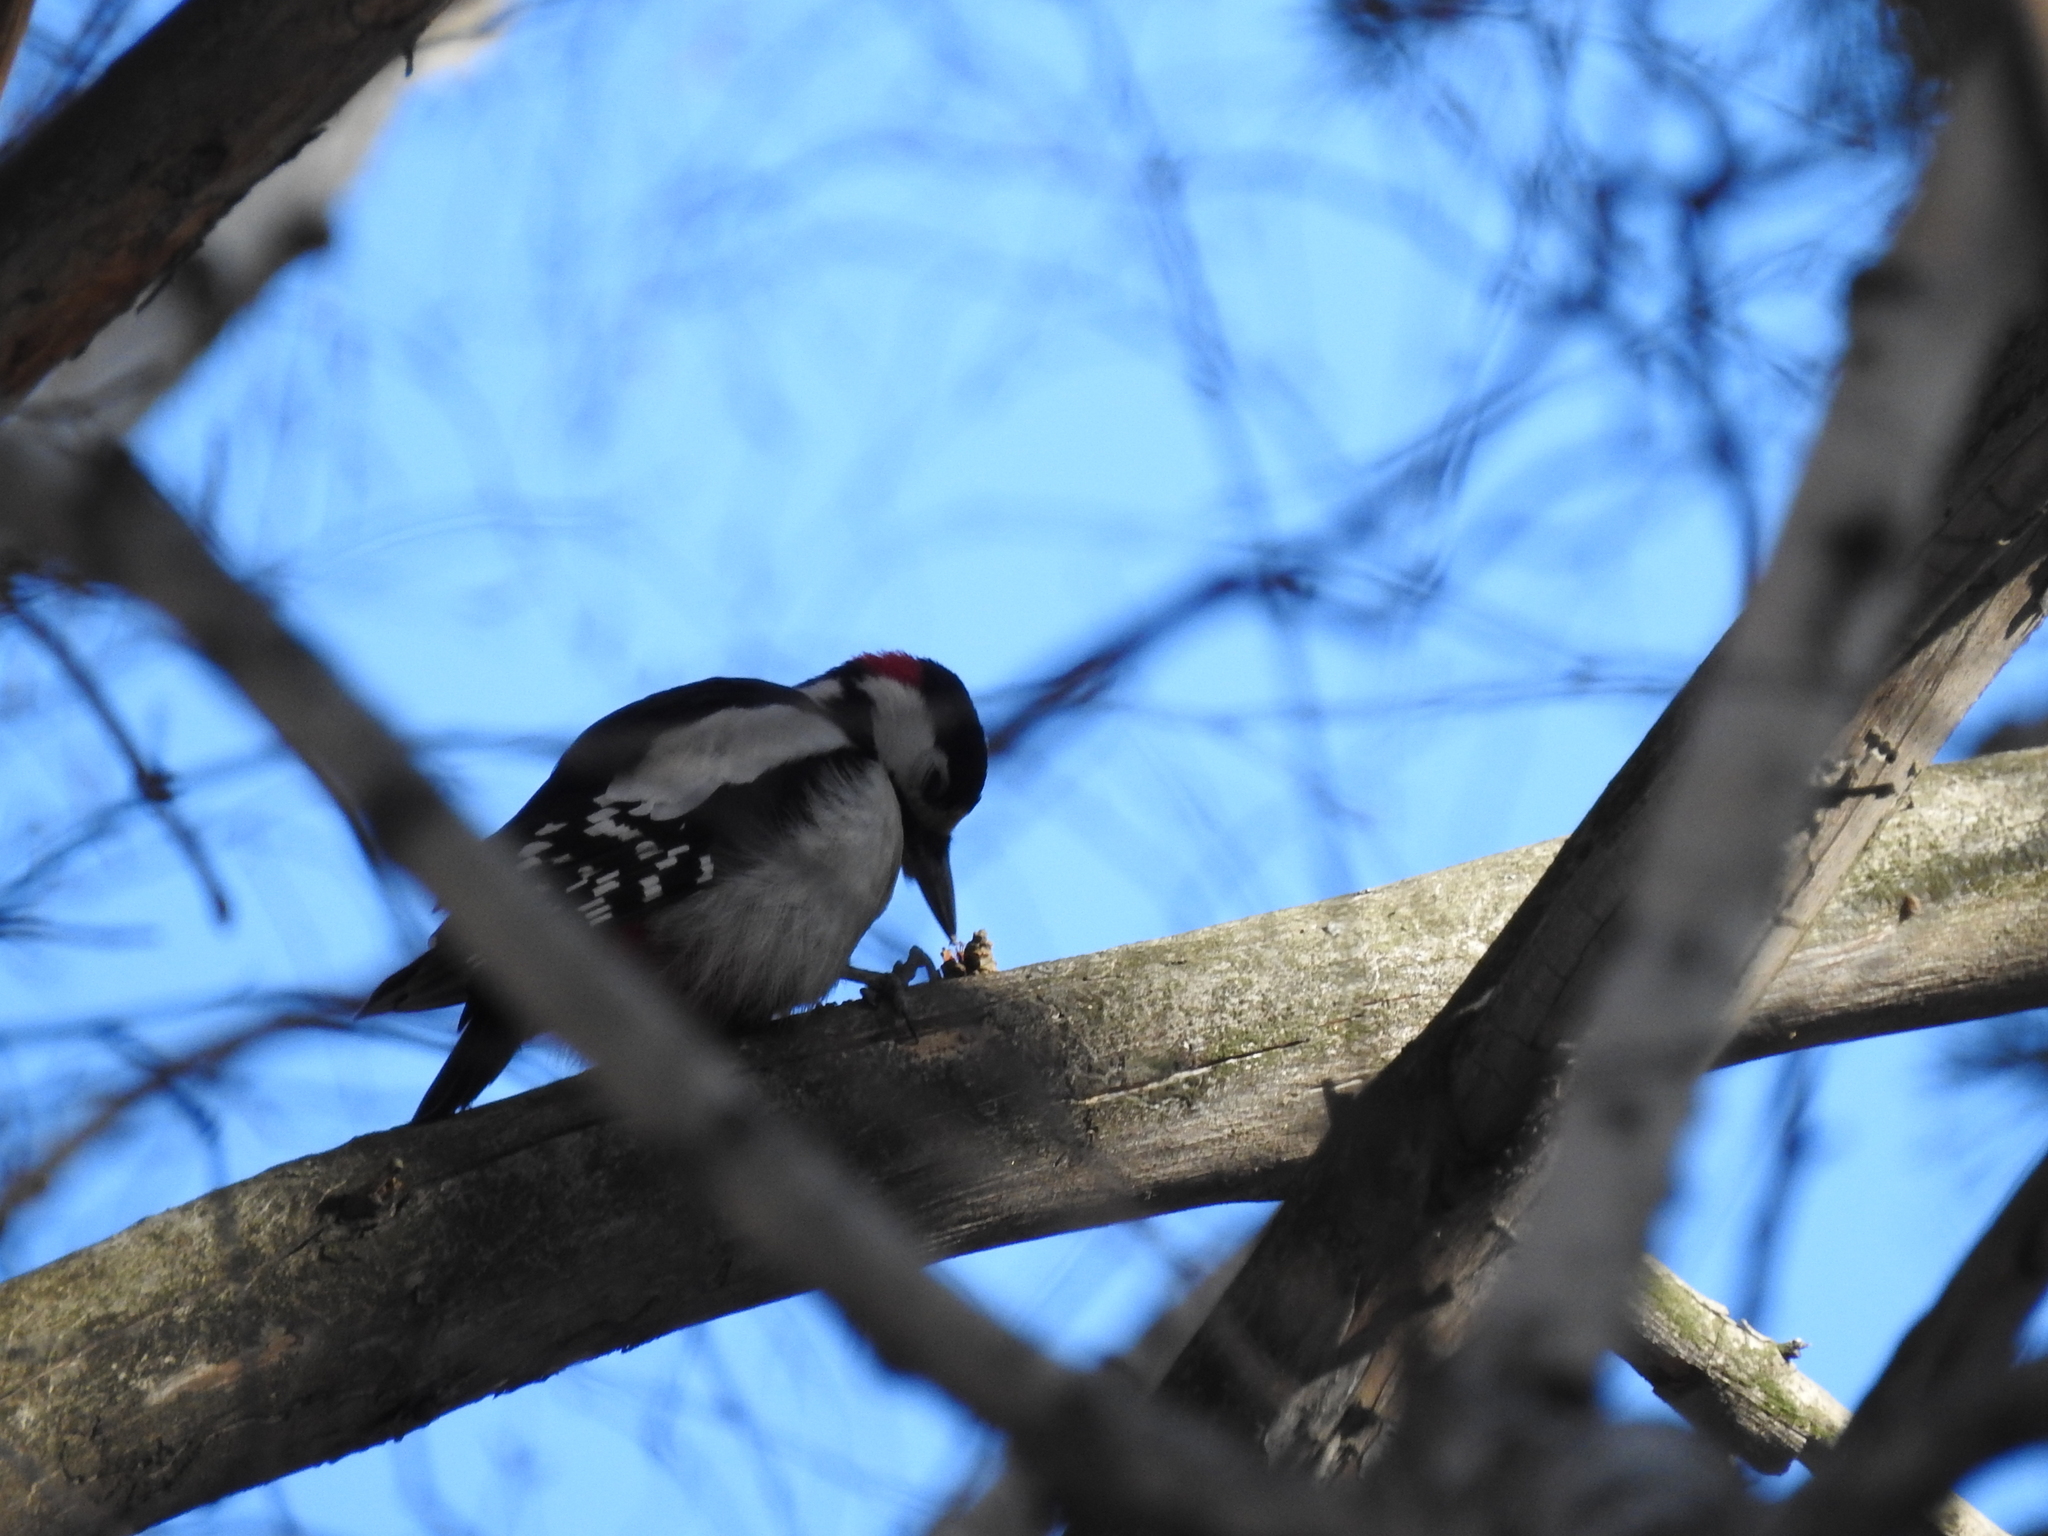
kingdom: Animalia
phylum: Chordata
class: Aves
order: Piciformes
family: Picidae
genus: Dendrocopos
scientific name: Dendrocopos major
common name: Great spotted woodpecker
